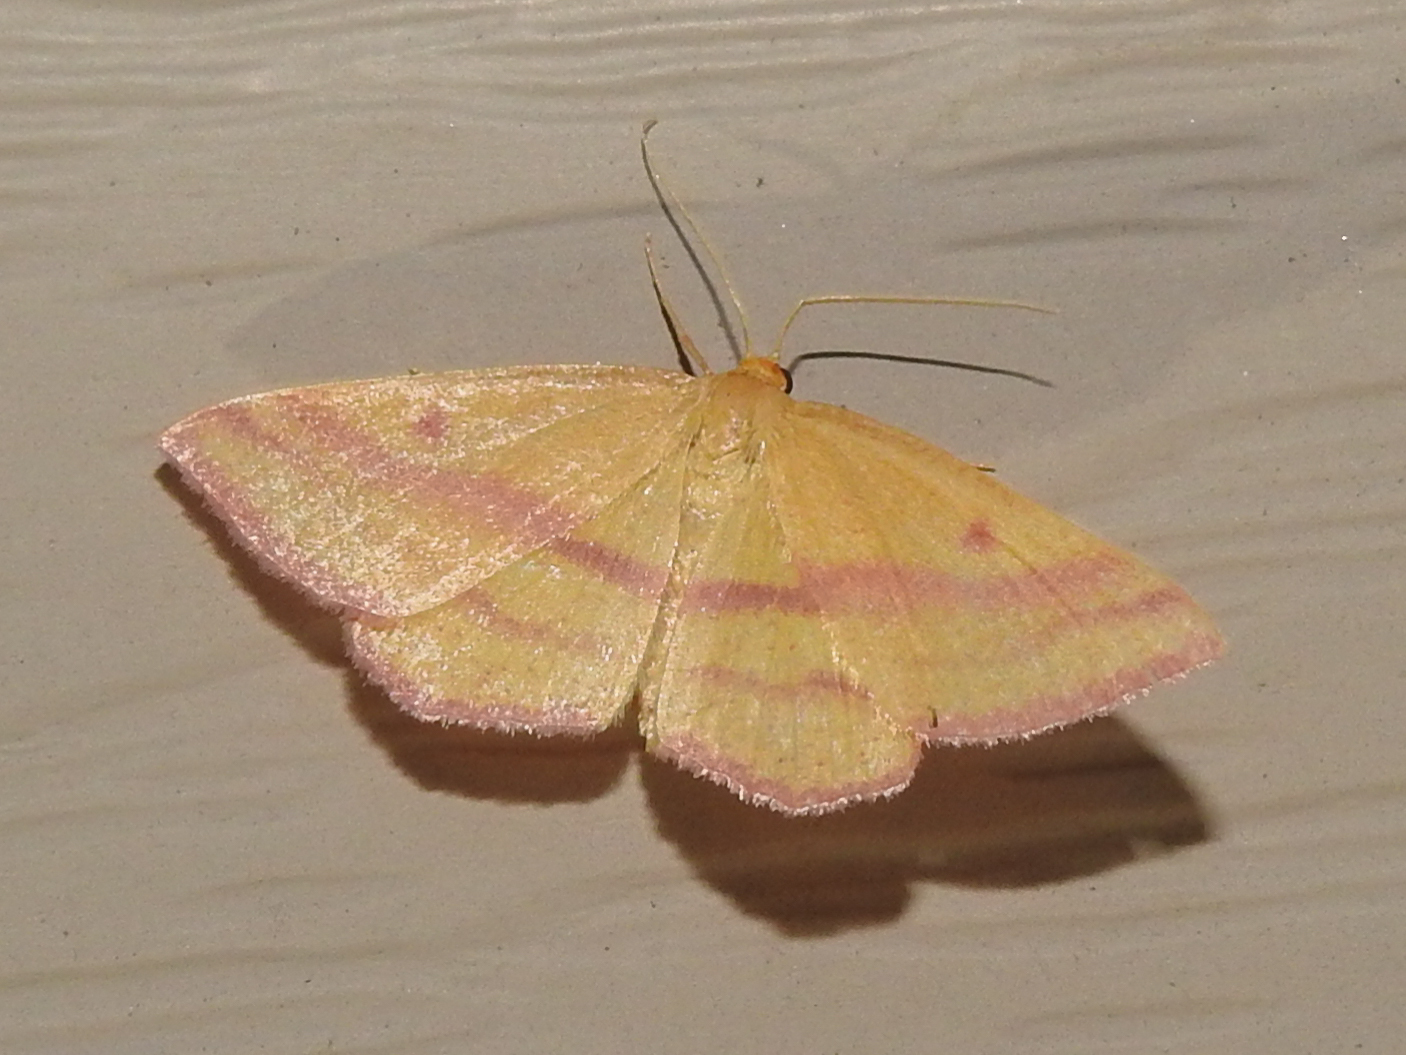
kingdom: Animalia
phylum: Arthropoda
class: Insecta
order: Lepidoptera
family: Geometridae
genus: Haematopis
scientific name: Haematopis grataria
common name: Chickweed geometer
